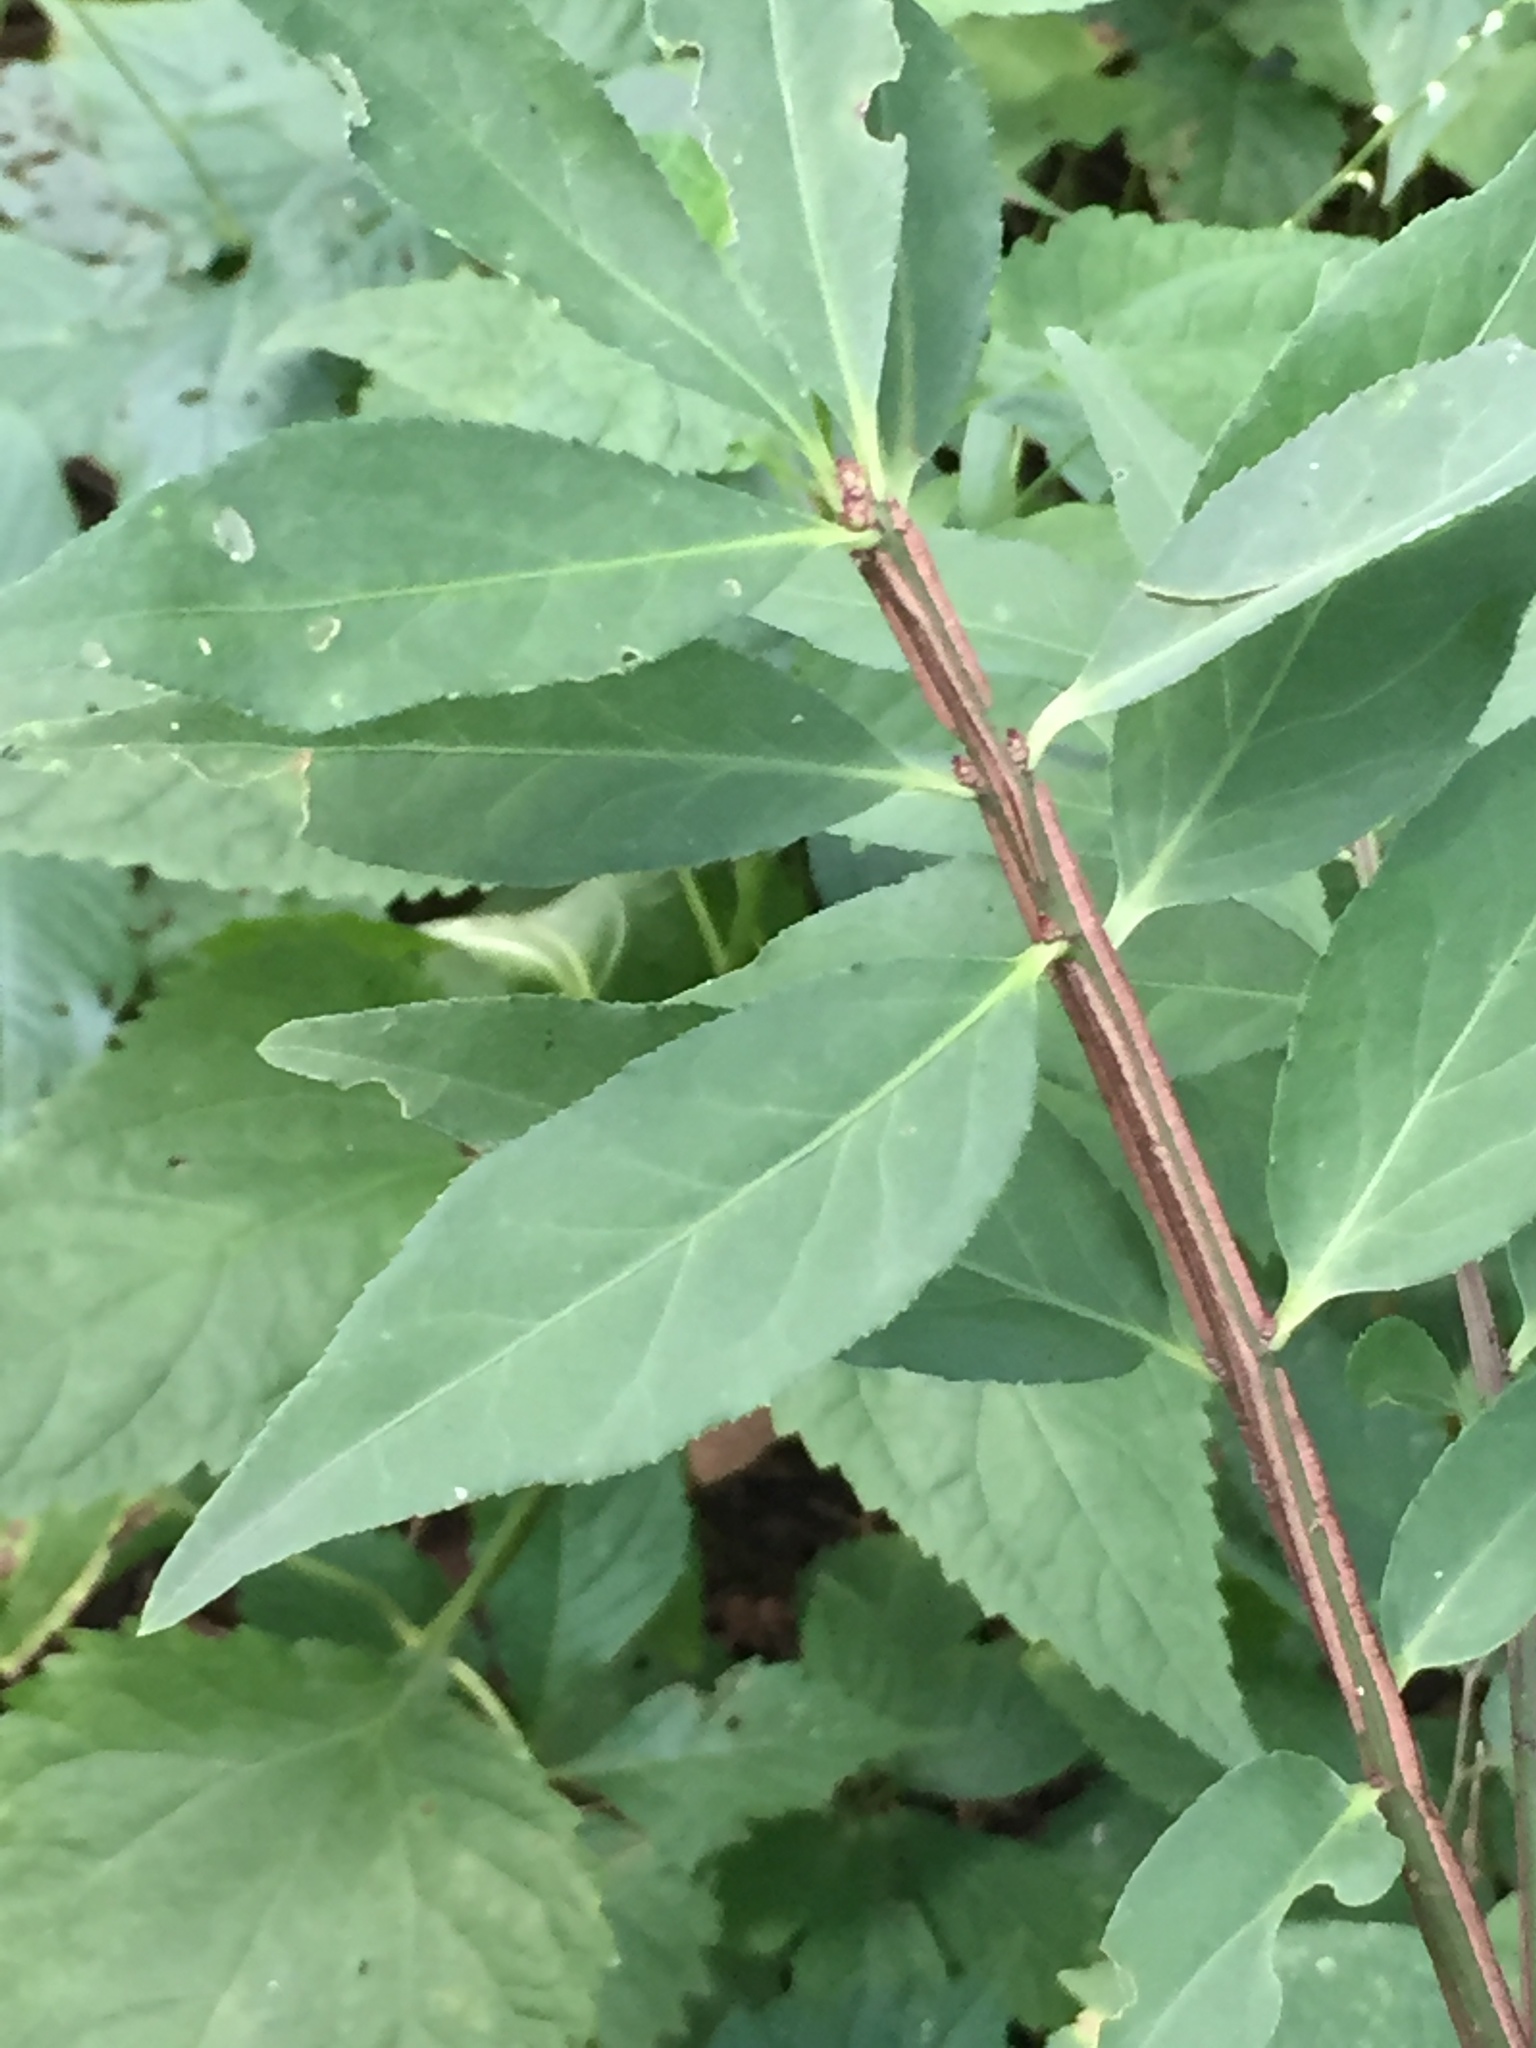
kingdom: Plantae
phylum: Tracheophyta
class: Magnoliopsida
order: Celastrales
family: Celastraceae
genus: Euonymus
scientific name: Euonymus alatus
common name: Winged euonymus
